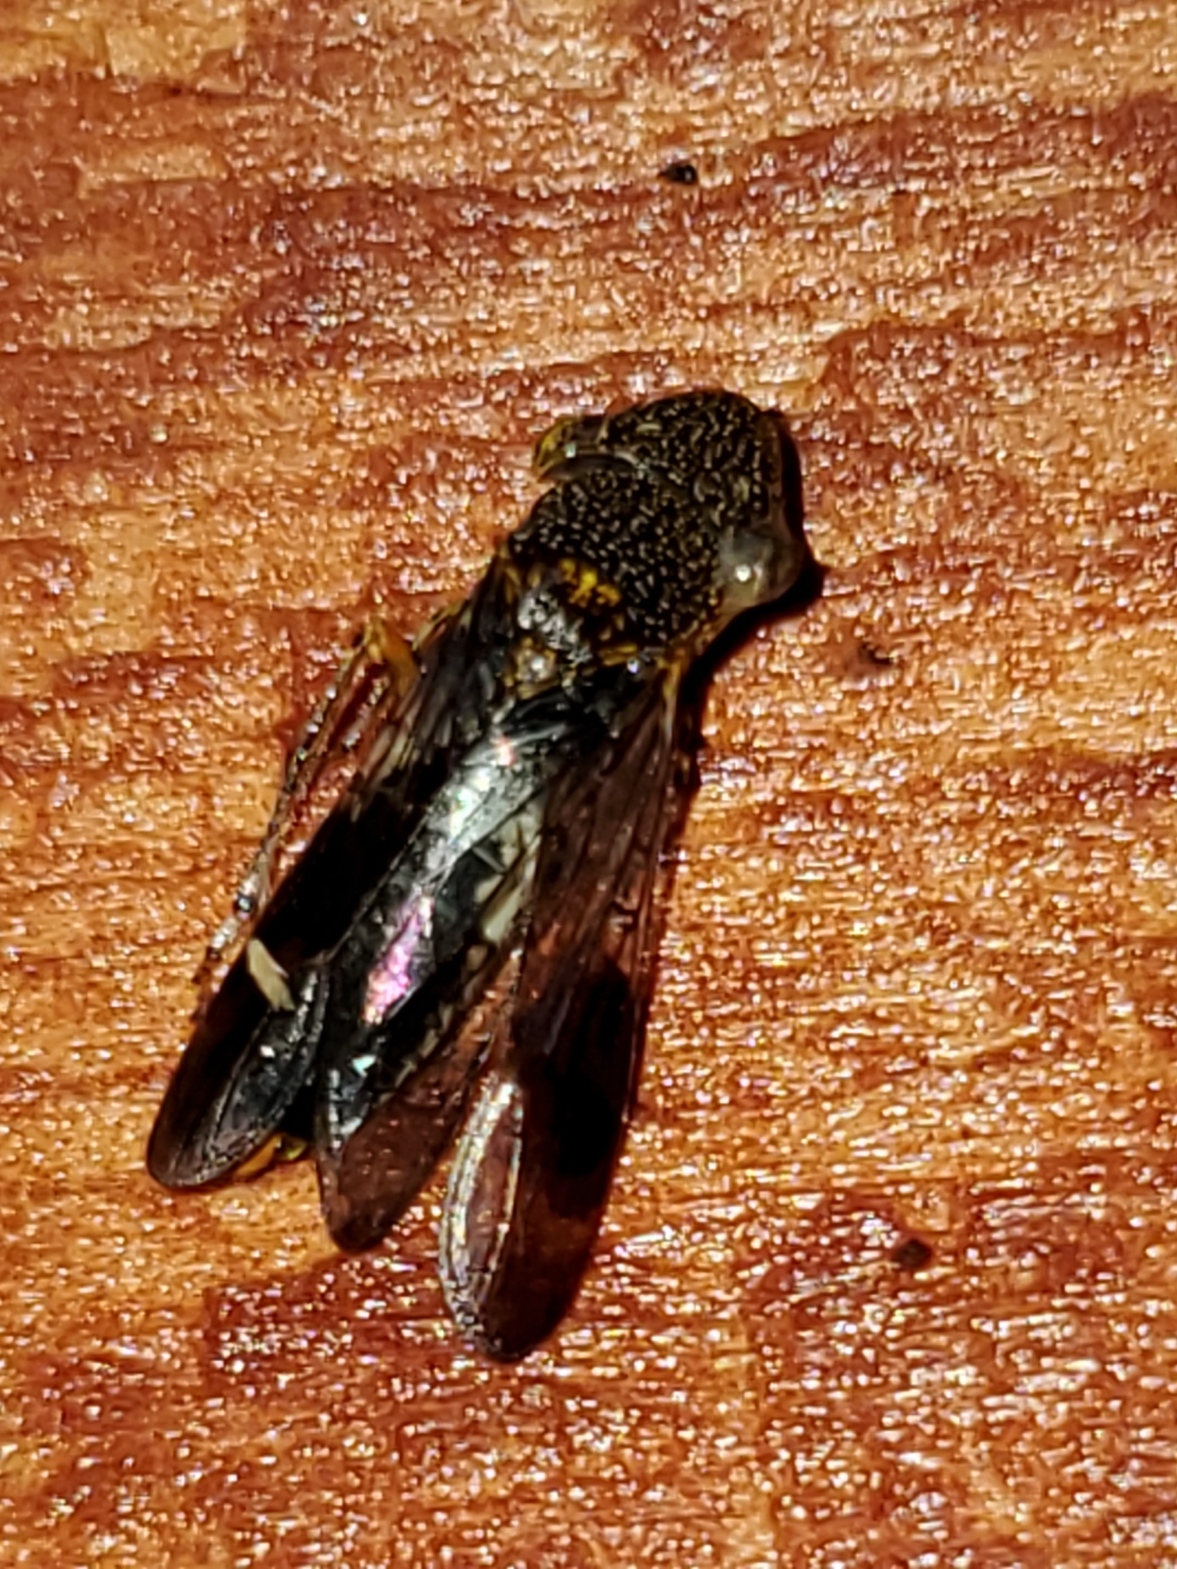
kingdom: Animalia
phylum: Arthropoda
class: Insecta
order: Hemiptera
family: Cicadellidae
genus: Homalodisca
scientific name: Homalodisca vitripennis
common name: Glassy-winged sharpshooter
